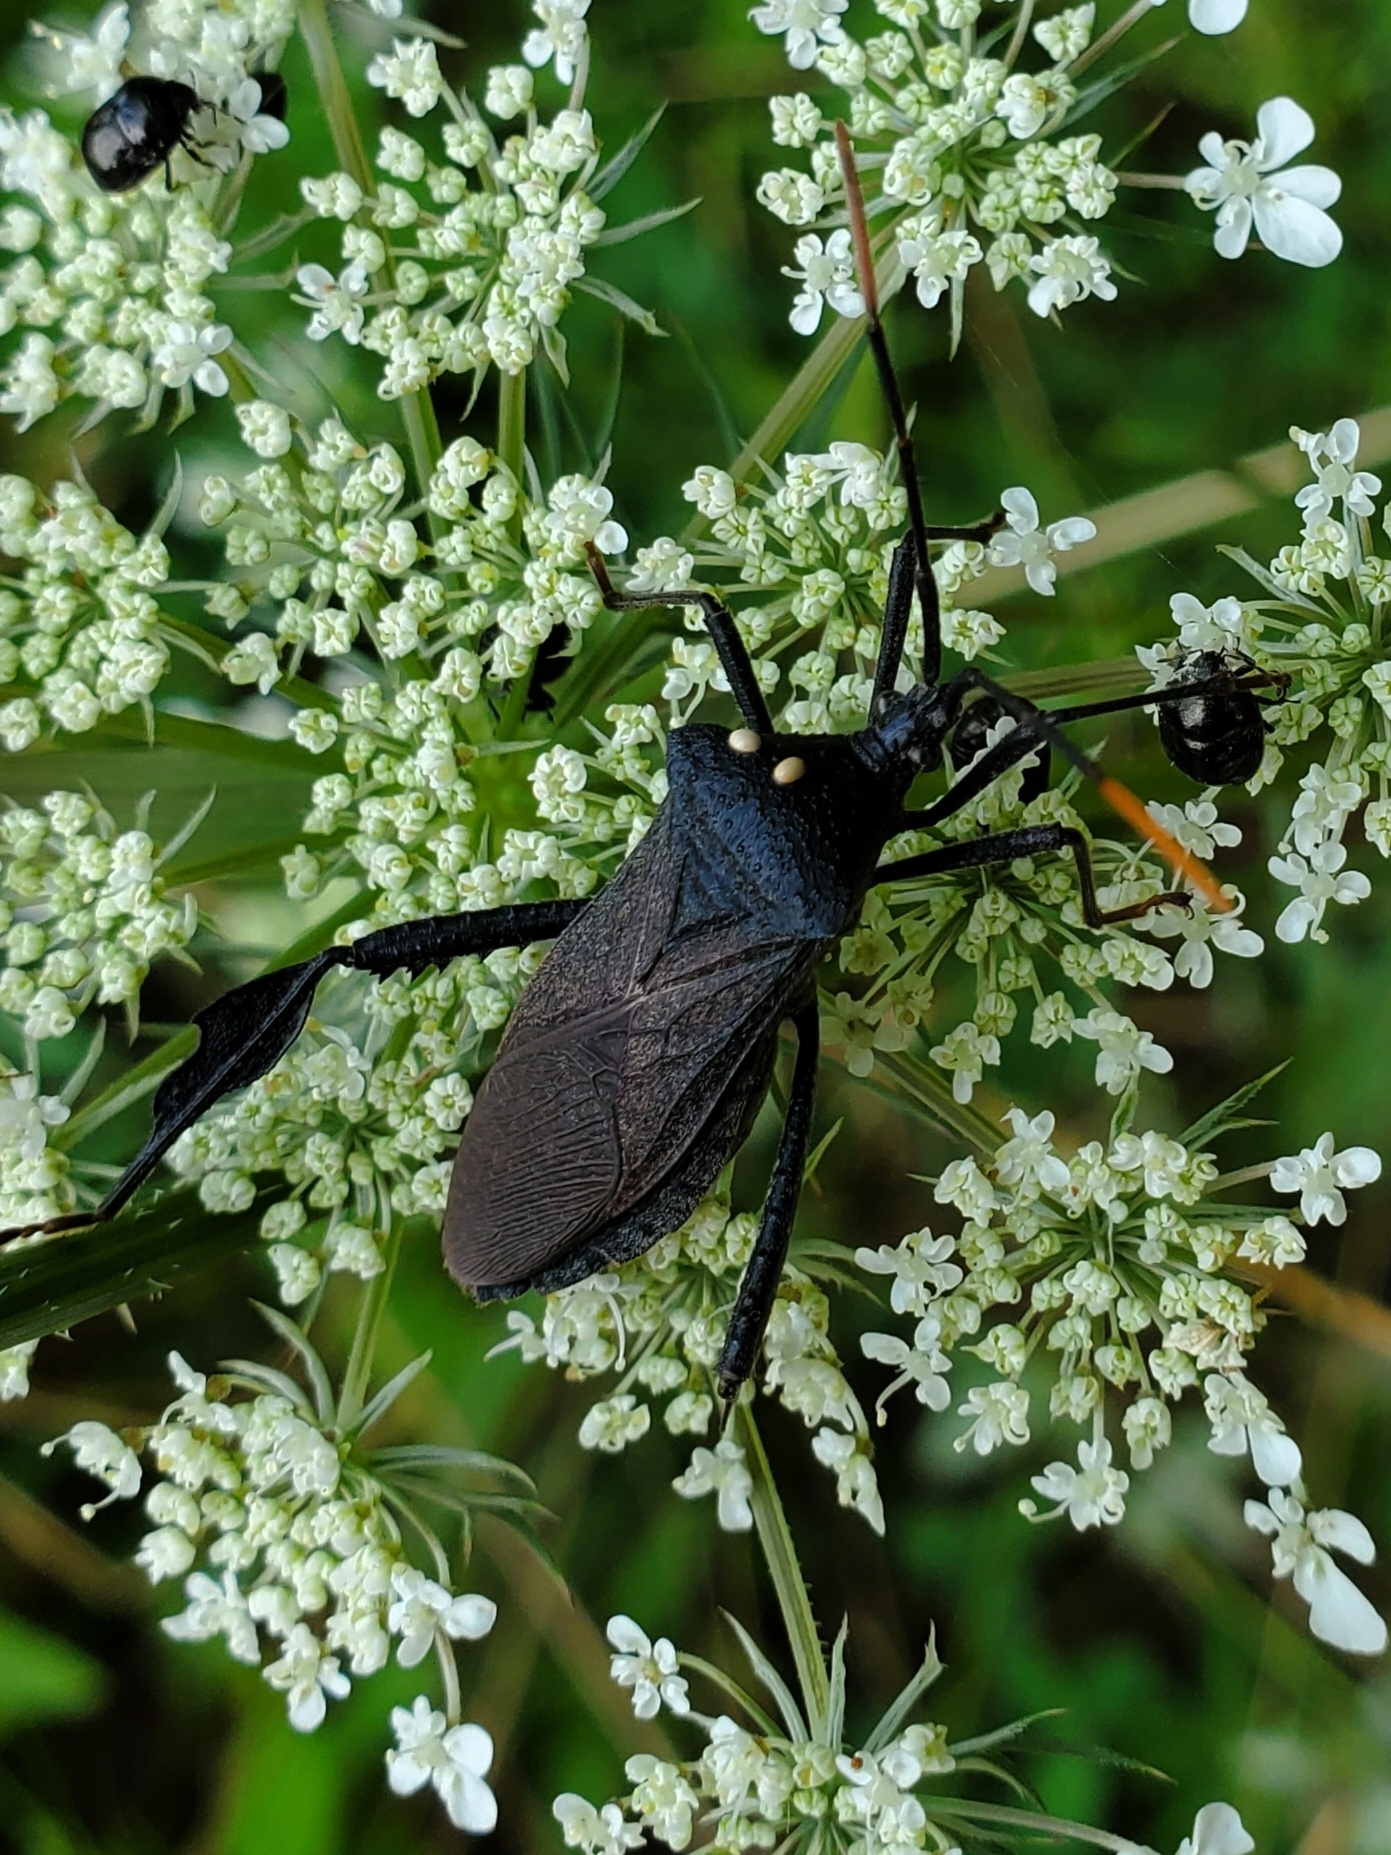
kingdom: Animalia
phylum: Arthropoda
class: Insecta
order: Hemiptera
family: Coreidae
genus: Acanthocephala
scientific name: Acanthocephala terminalis
